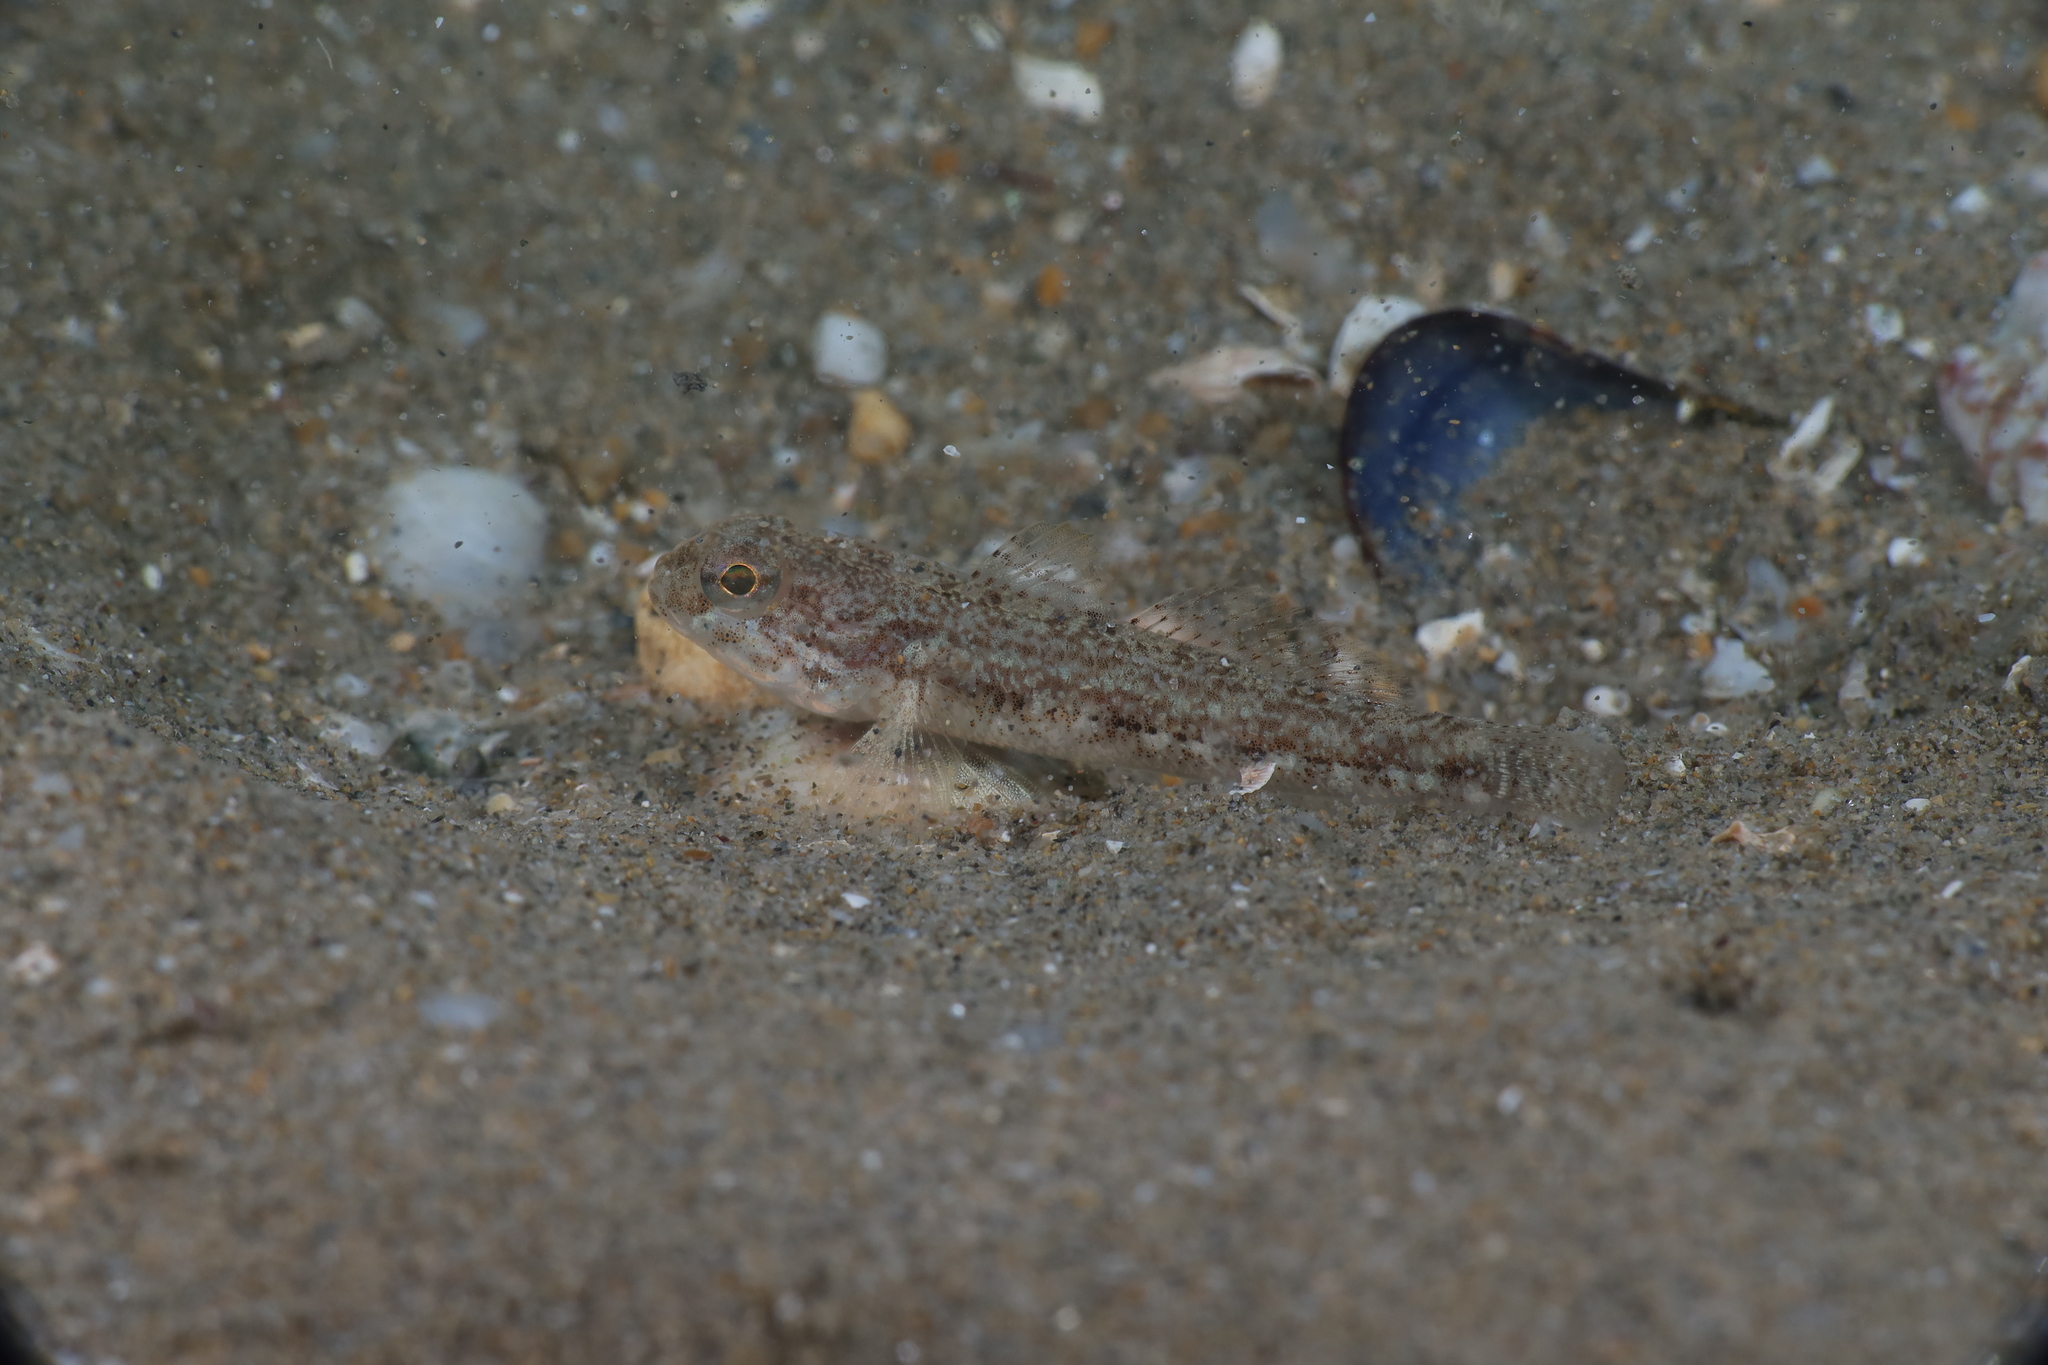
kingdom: Animalia
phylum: Chordata
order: Perciformes
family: Gobiidae
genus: Gobius
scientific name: Gobius niger
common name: Black goby
